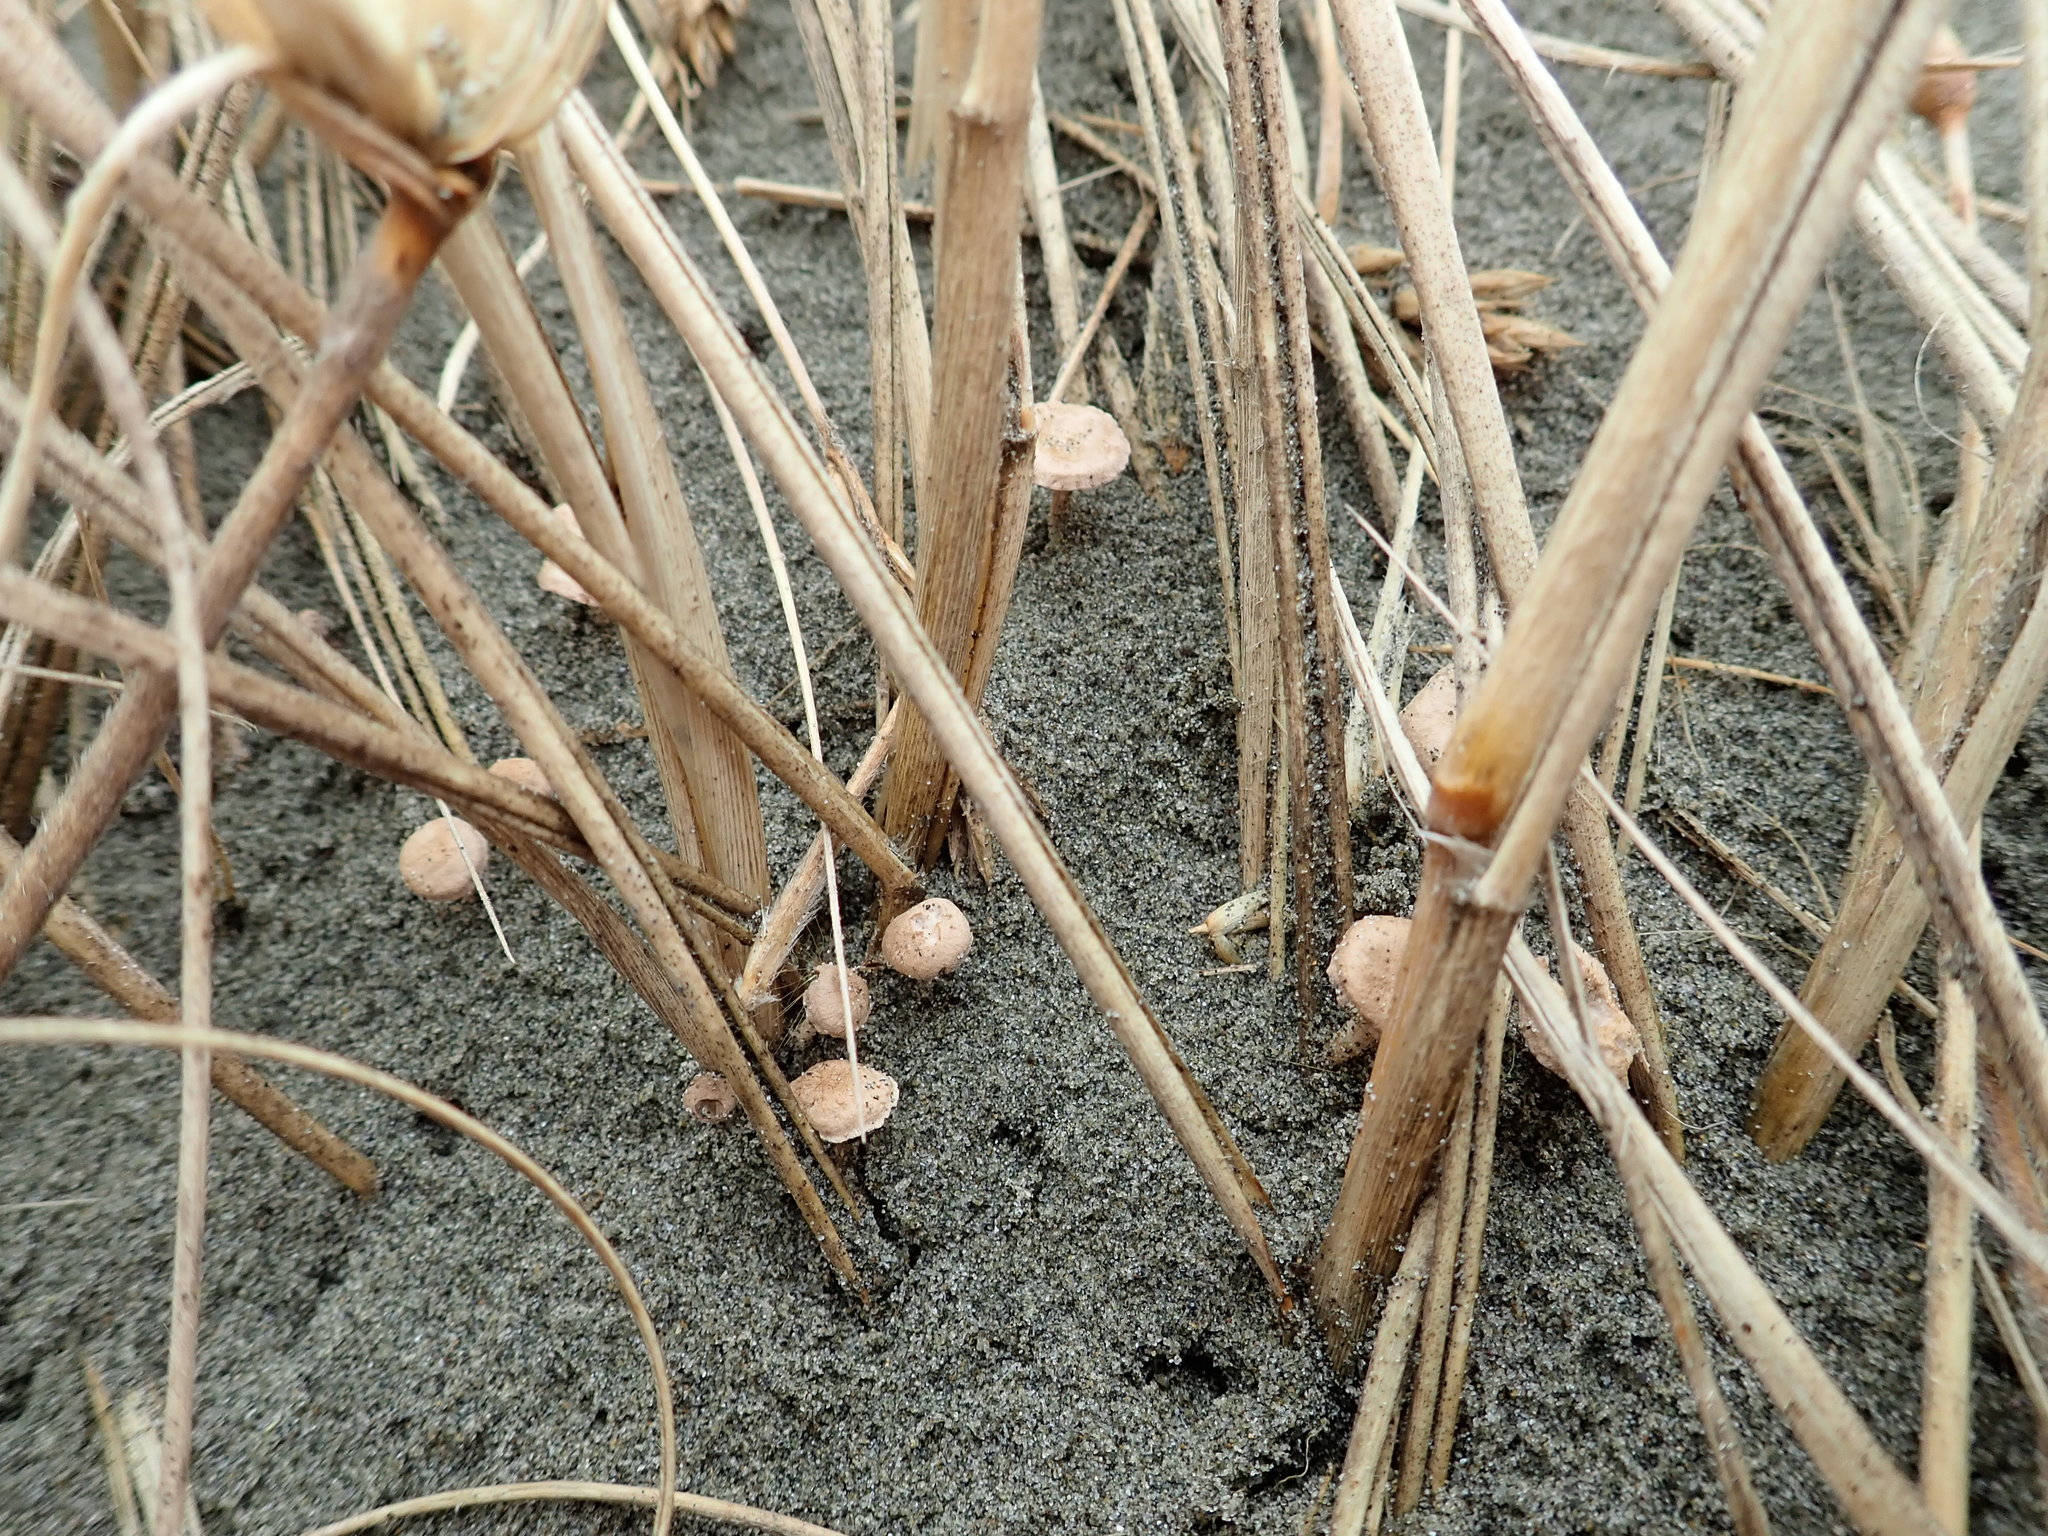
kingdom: Fungi
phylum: Basidiomycota
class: Agaricomycetes
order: Agaricales
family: Marasmiaceae
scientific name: Marasmiaceae
